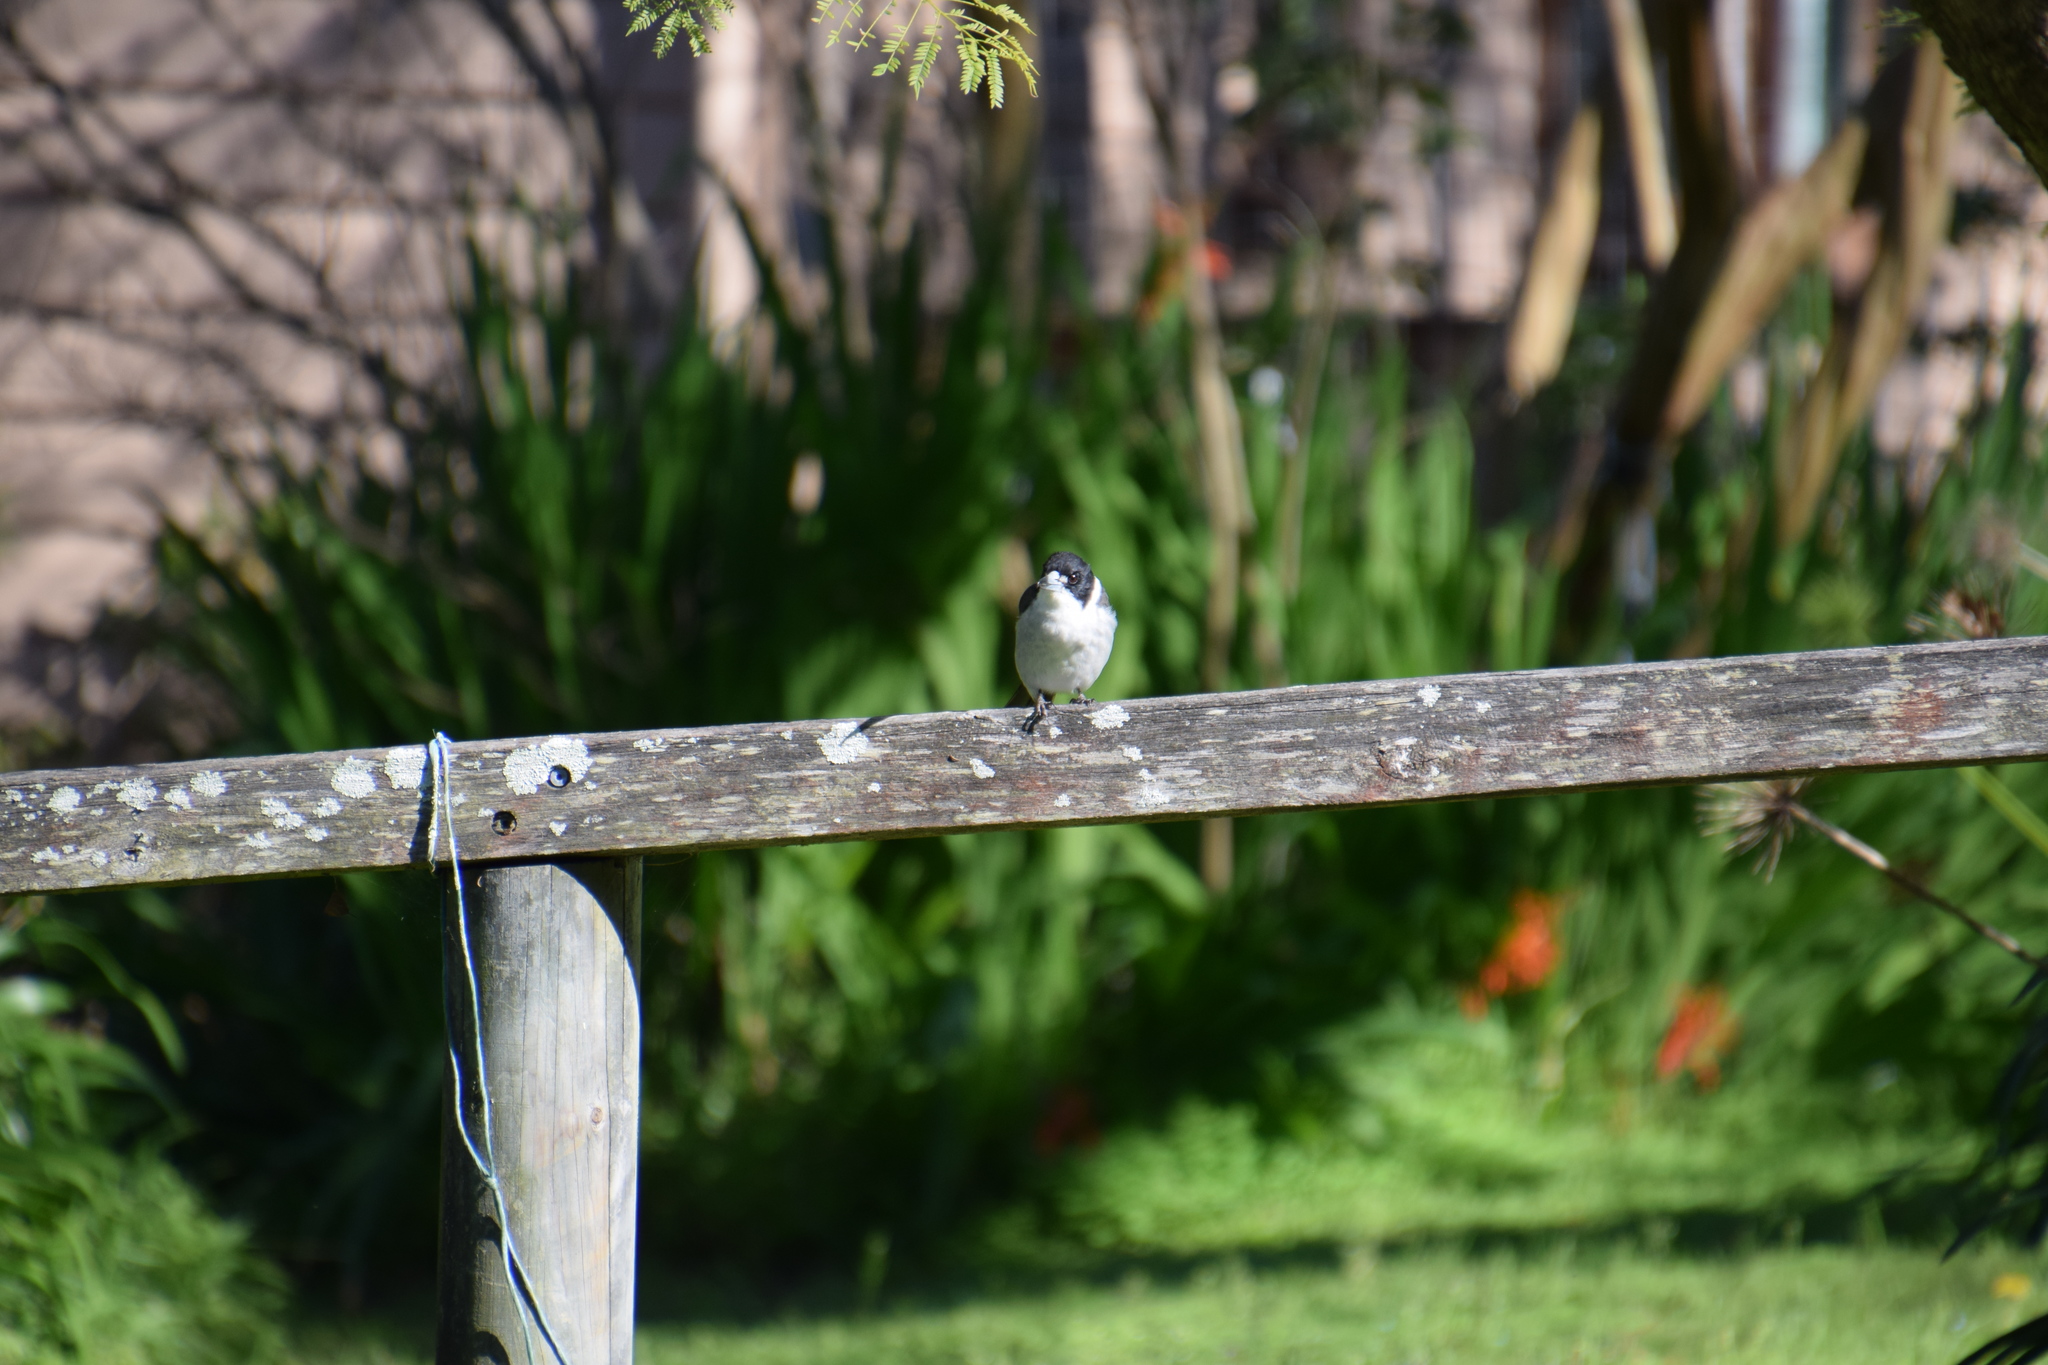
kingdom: Animalia
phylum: Chordata
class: Aves
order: Passeriformes
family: Cracticidae
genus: Cracticus
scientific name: Cracticus torquatus
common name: Grey butcherbird
